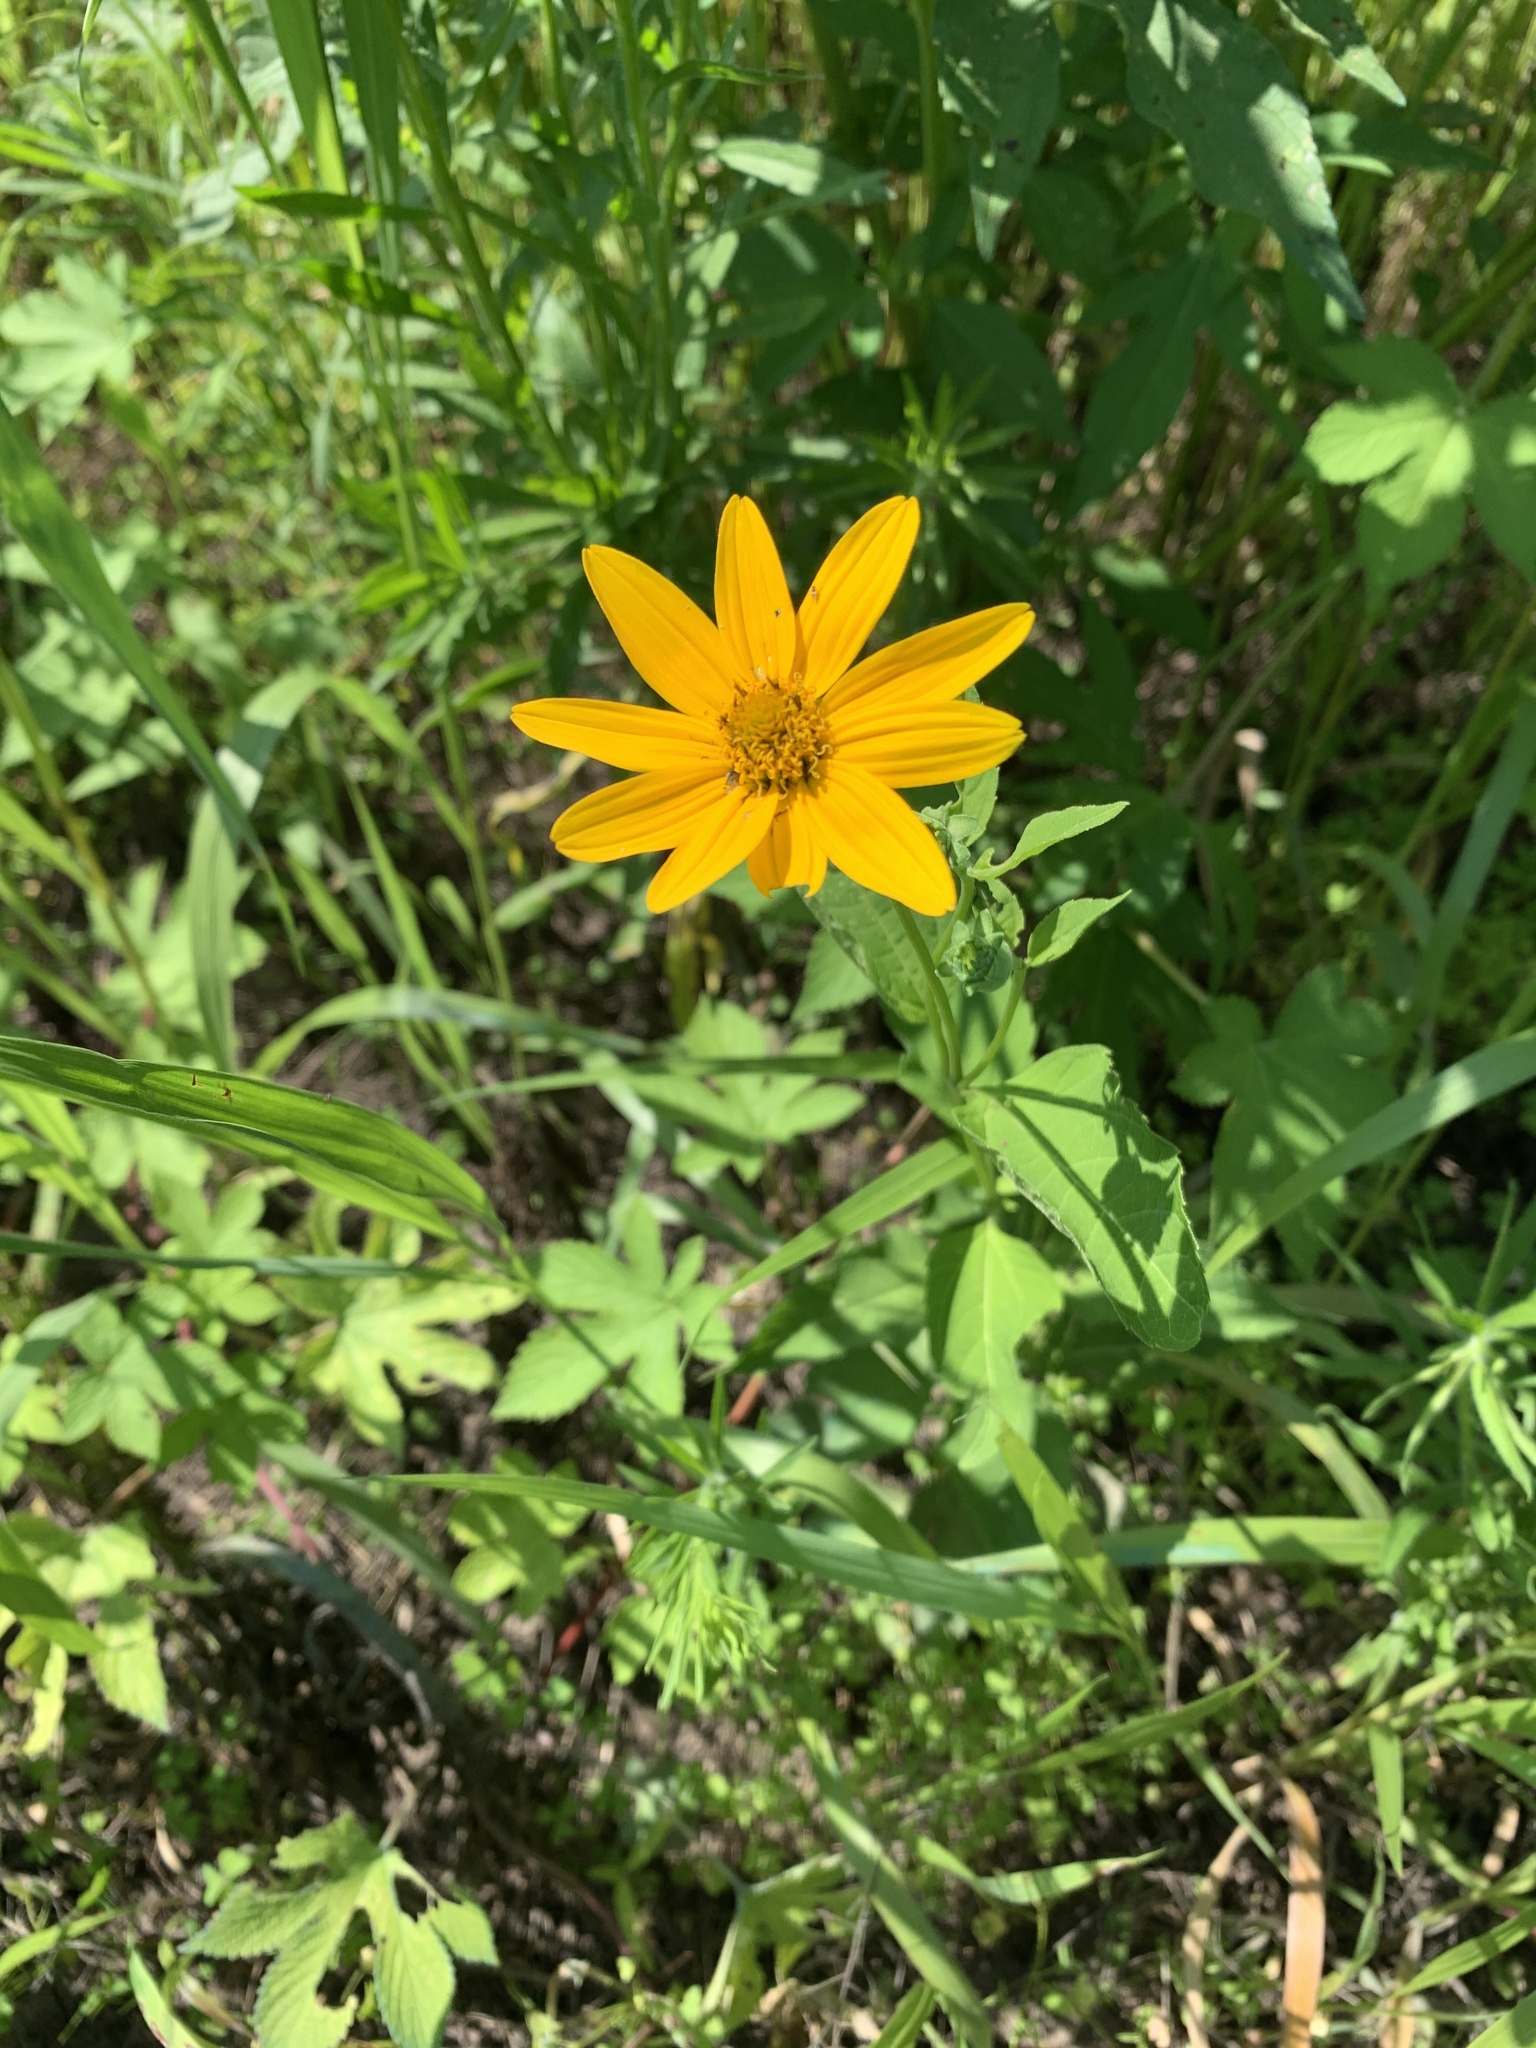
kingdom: Plantae
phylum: Tracheophyta
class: Magnoliopsida
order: Asterales
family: Asteraceae
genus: Heliopsis
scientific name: Heliopsis helianthoides
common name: False sunflower
